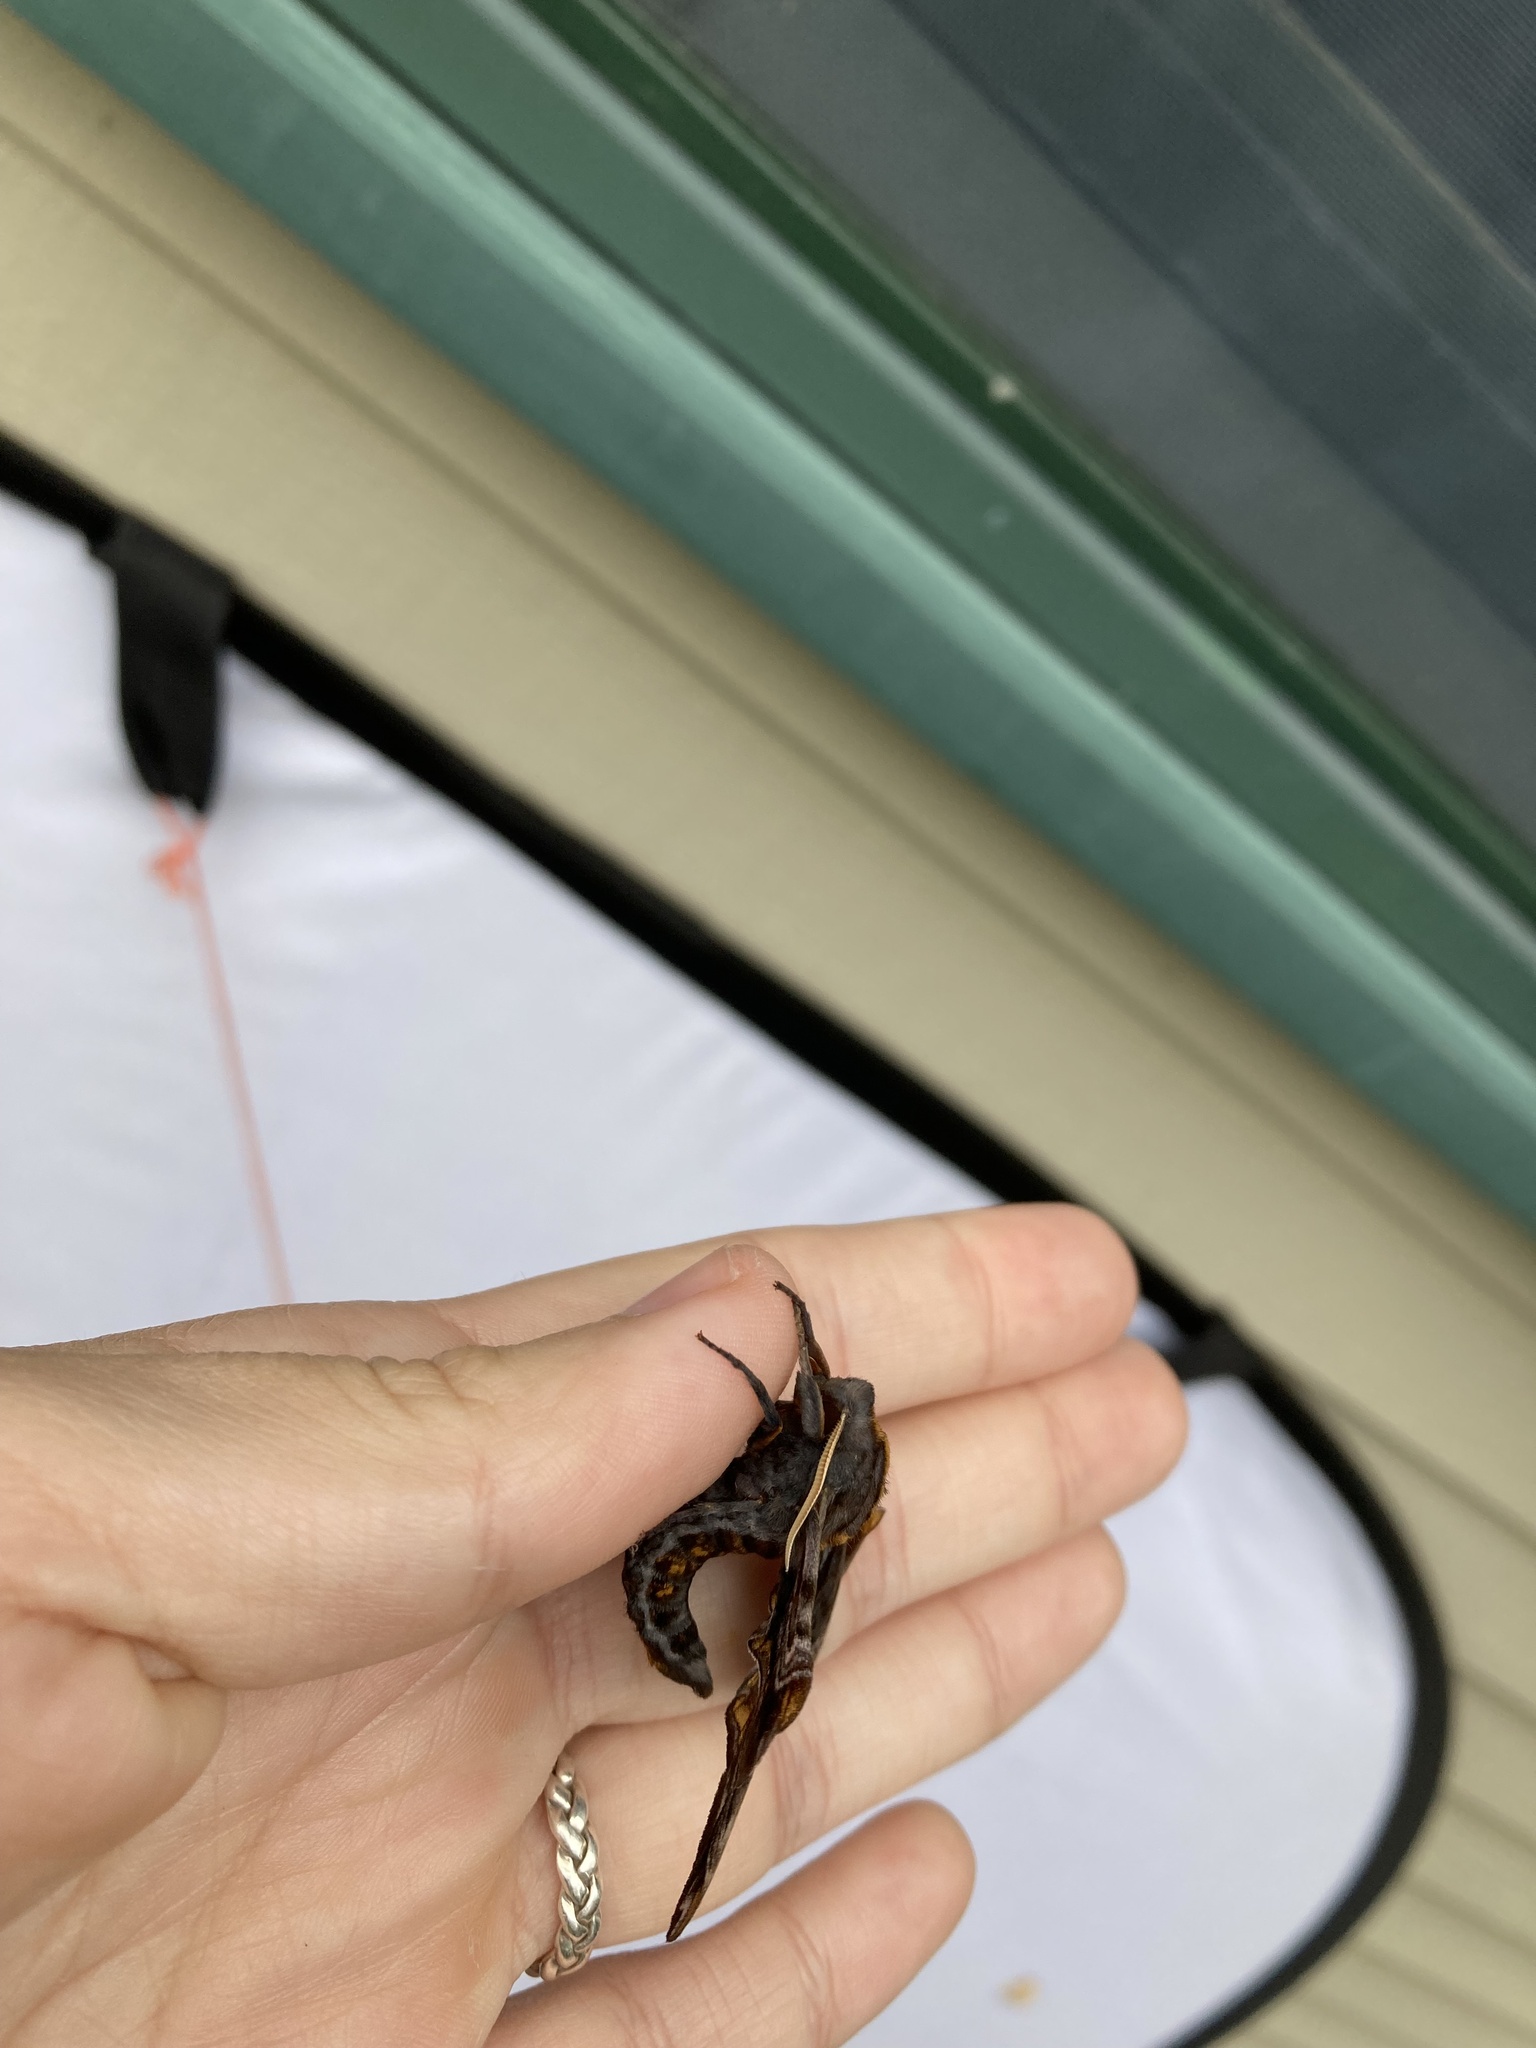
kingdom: Animalia
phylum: Arthropoda
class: Insecta
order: Lepidoptera
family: Sphingidae
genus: Paonias
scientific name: Paonias myops
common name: Small-eyed sphinx
